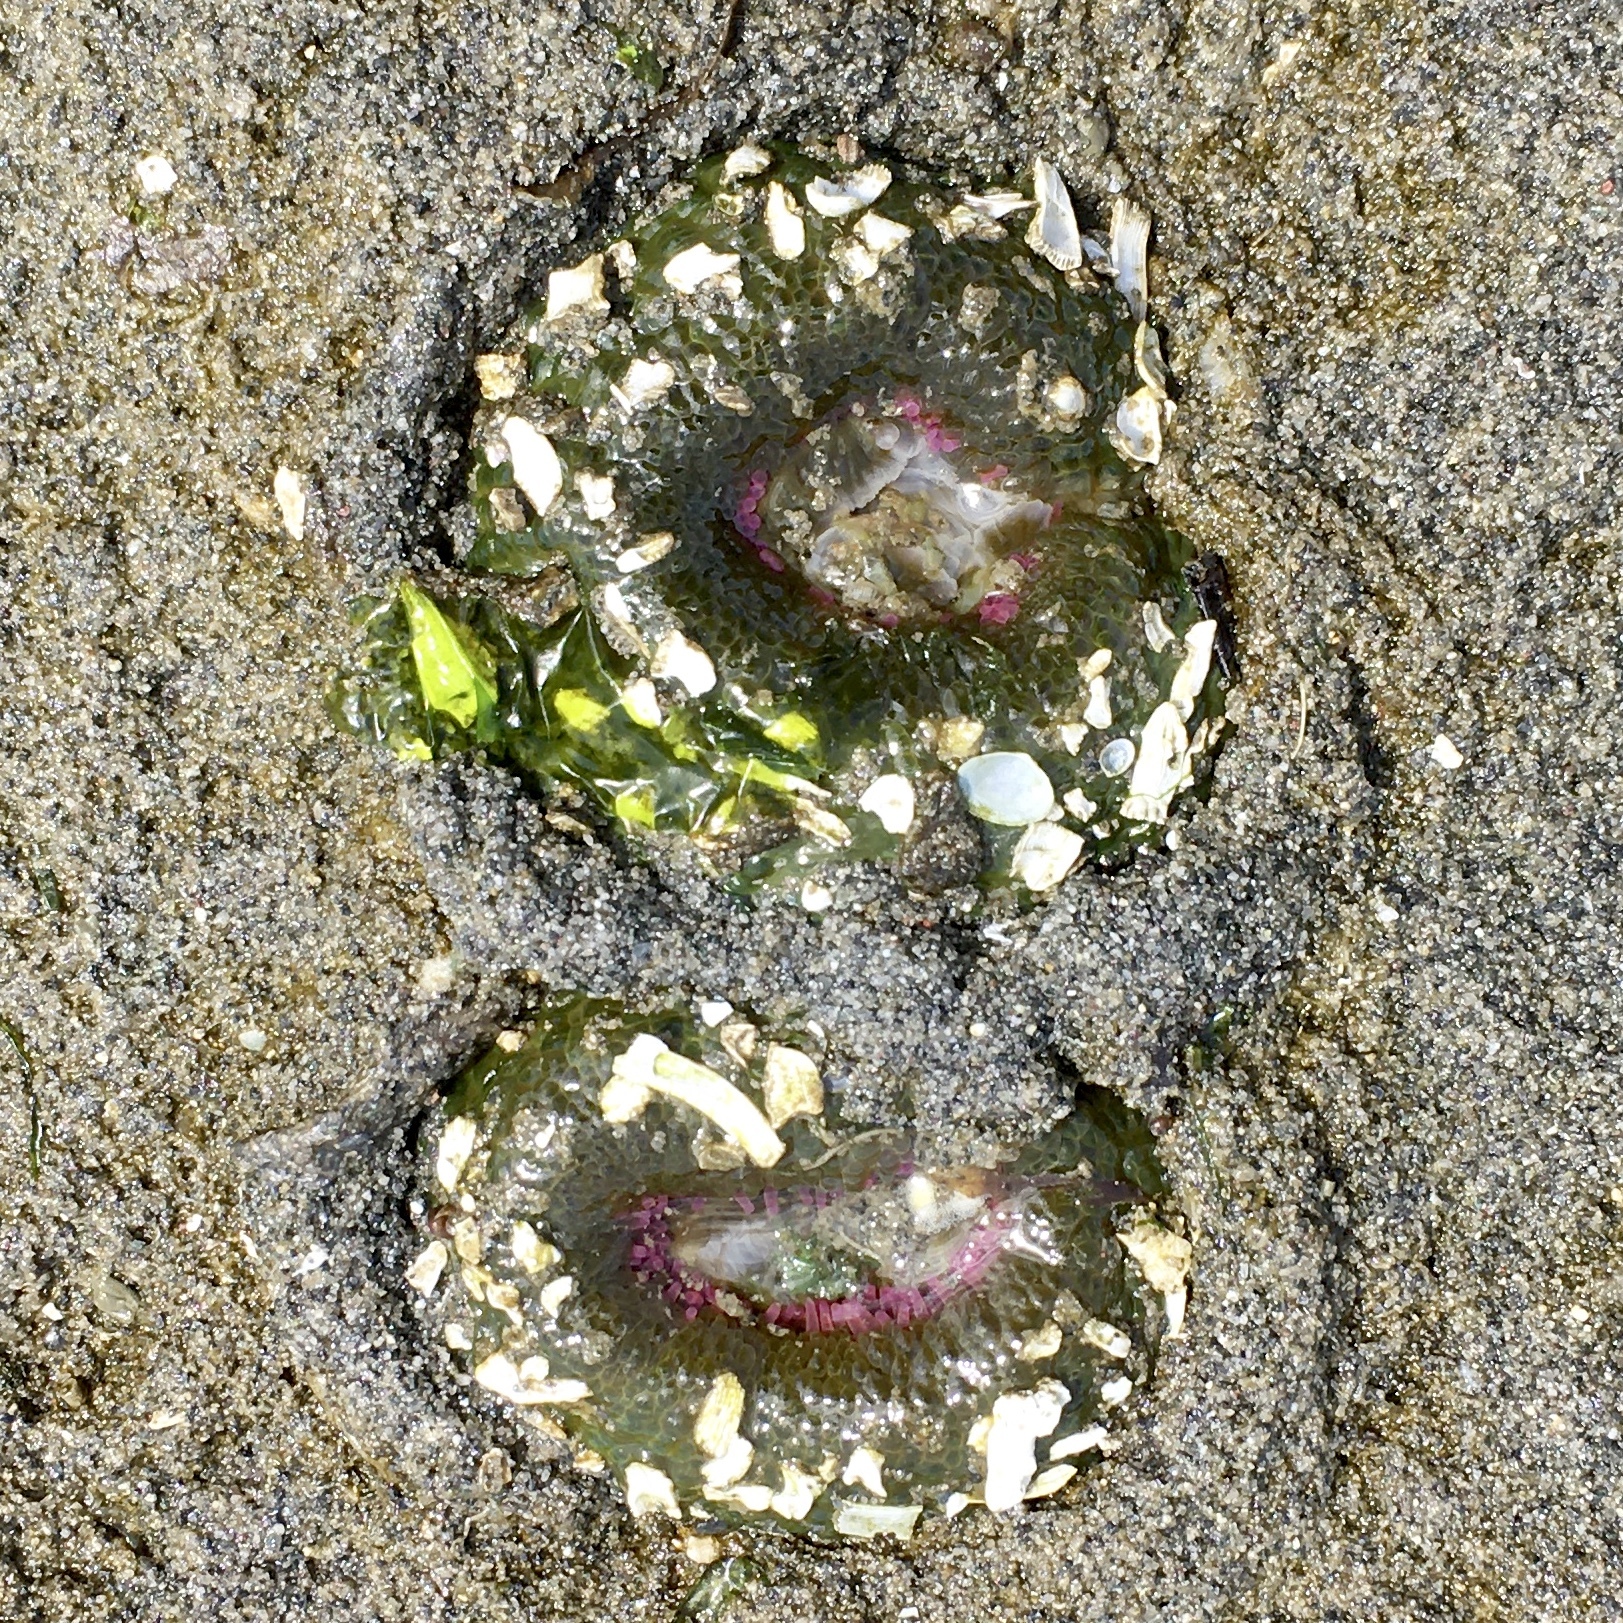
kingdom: Animalia
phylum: Cnidaria
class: Anthozoa
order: Actiniaria
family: Actiniidae
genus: Anthopleura
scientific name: Anthopleura elegantissima
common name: Clonal anemone
